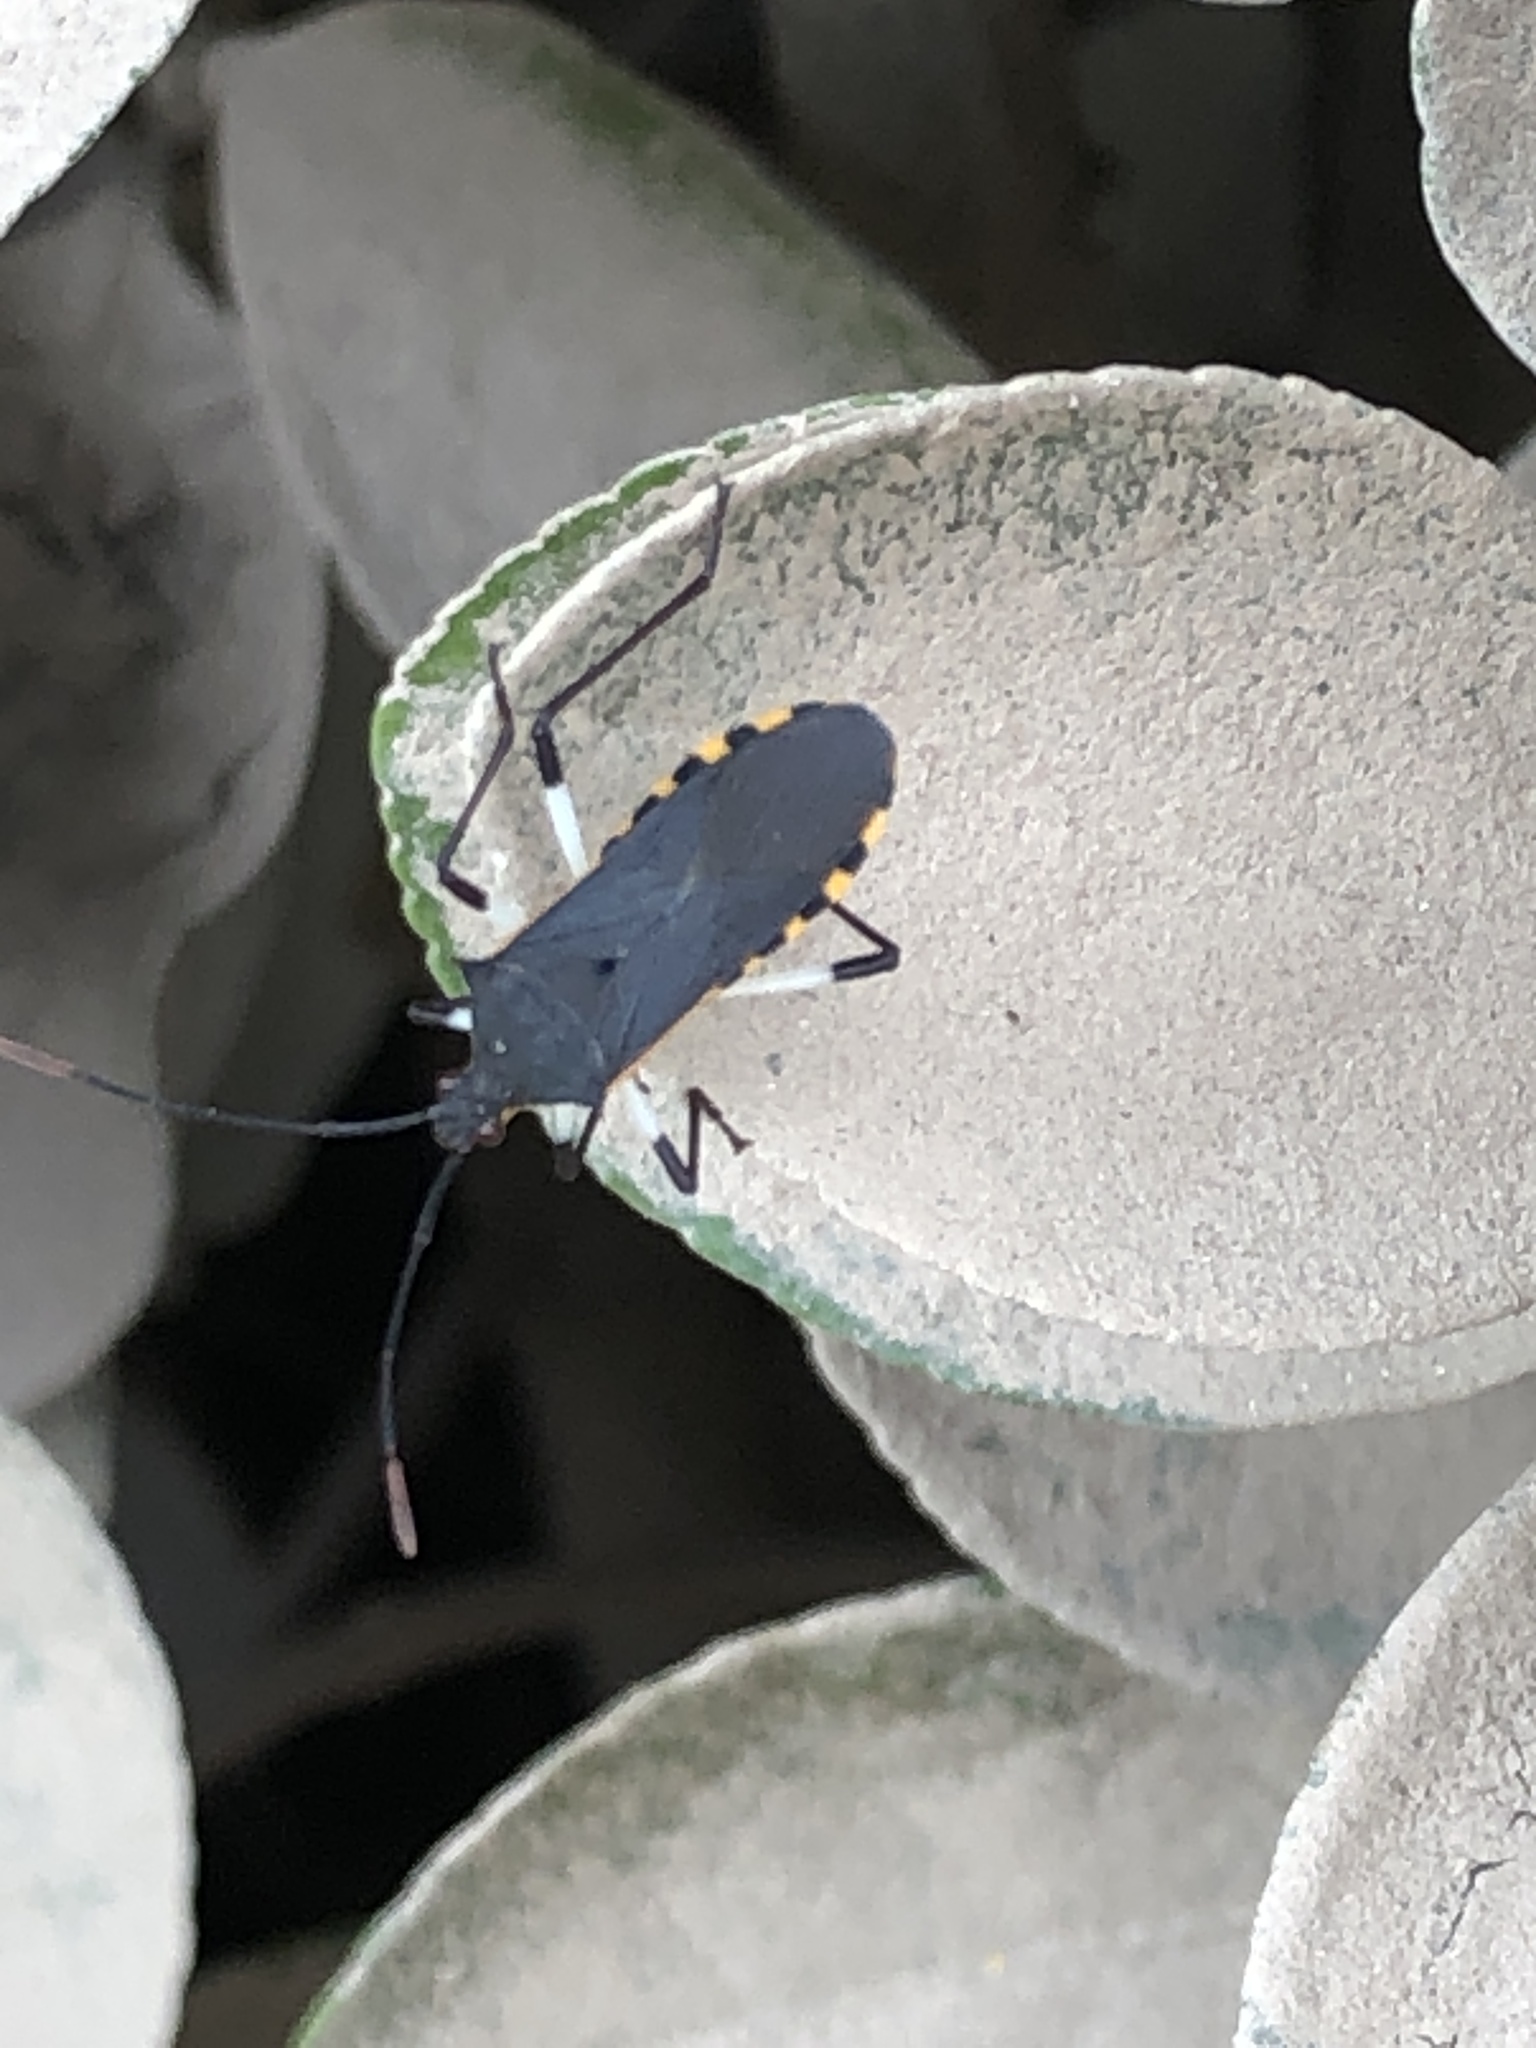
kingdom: Animalia
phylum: Arthropoda
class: Insecta
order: Hemiptera
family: Coreidae
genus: Plinachtus
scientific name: Plinachtus bicoloripes
